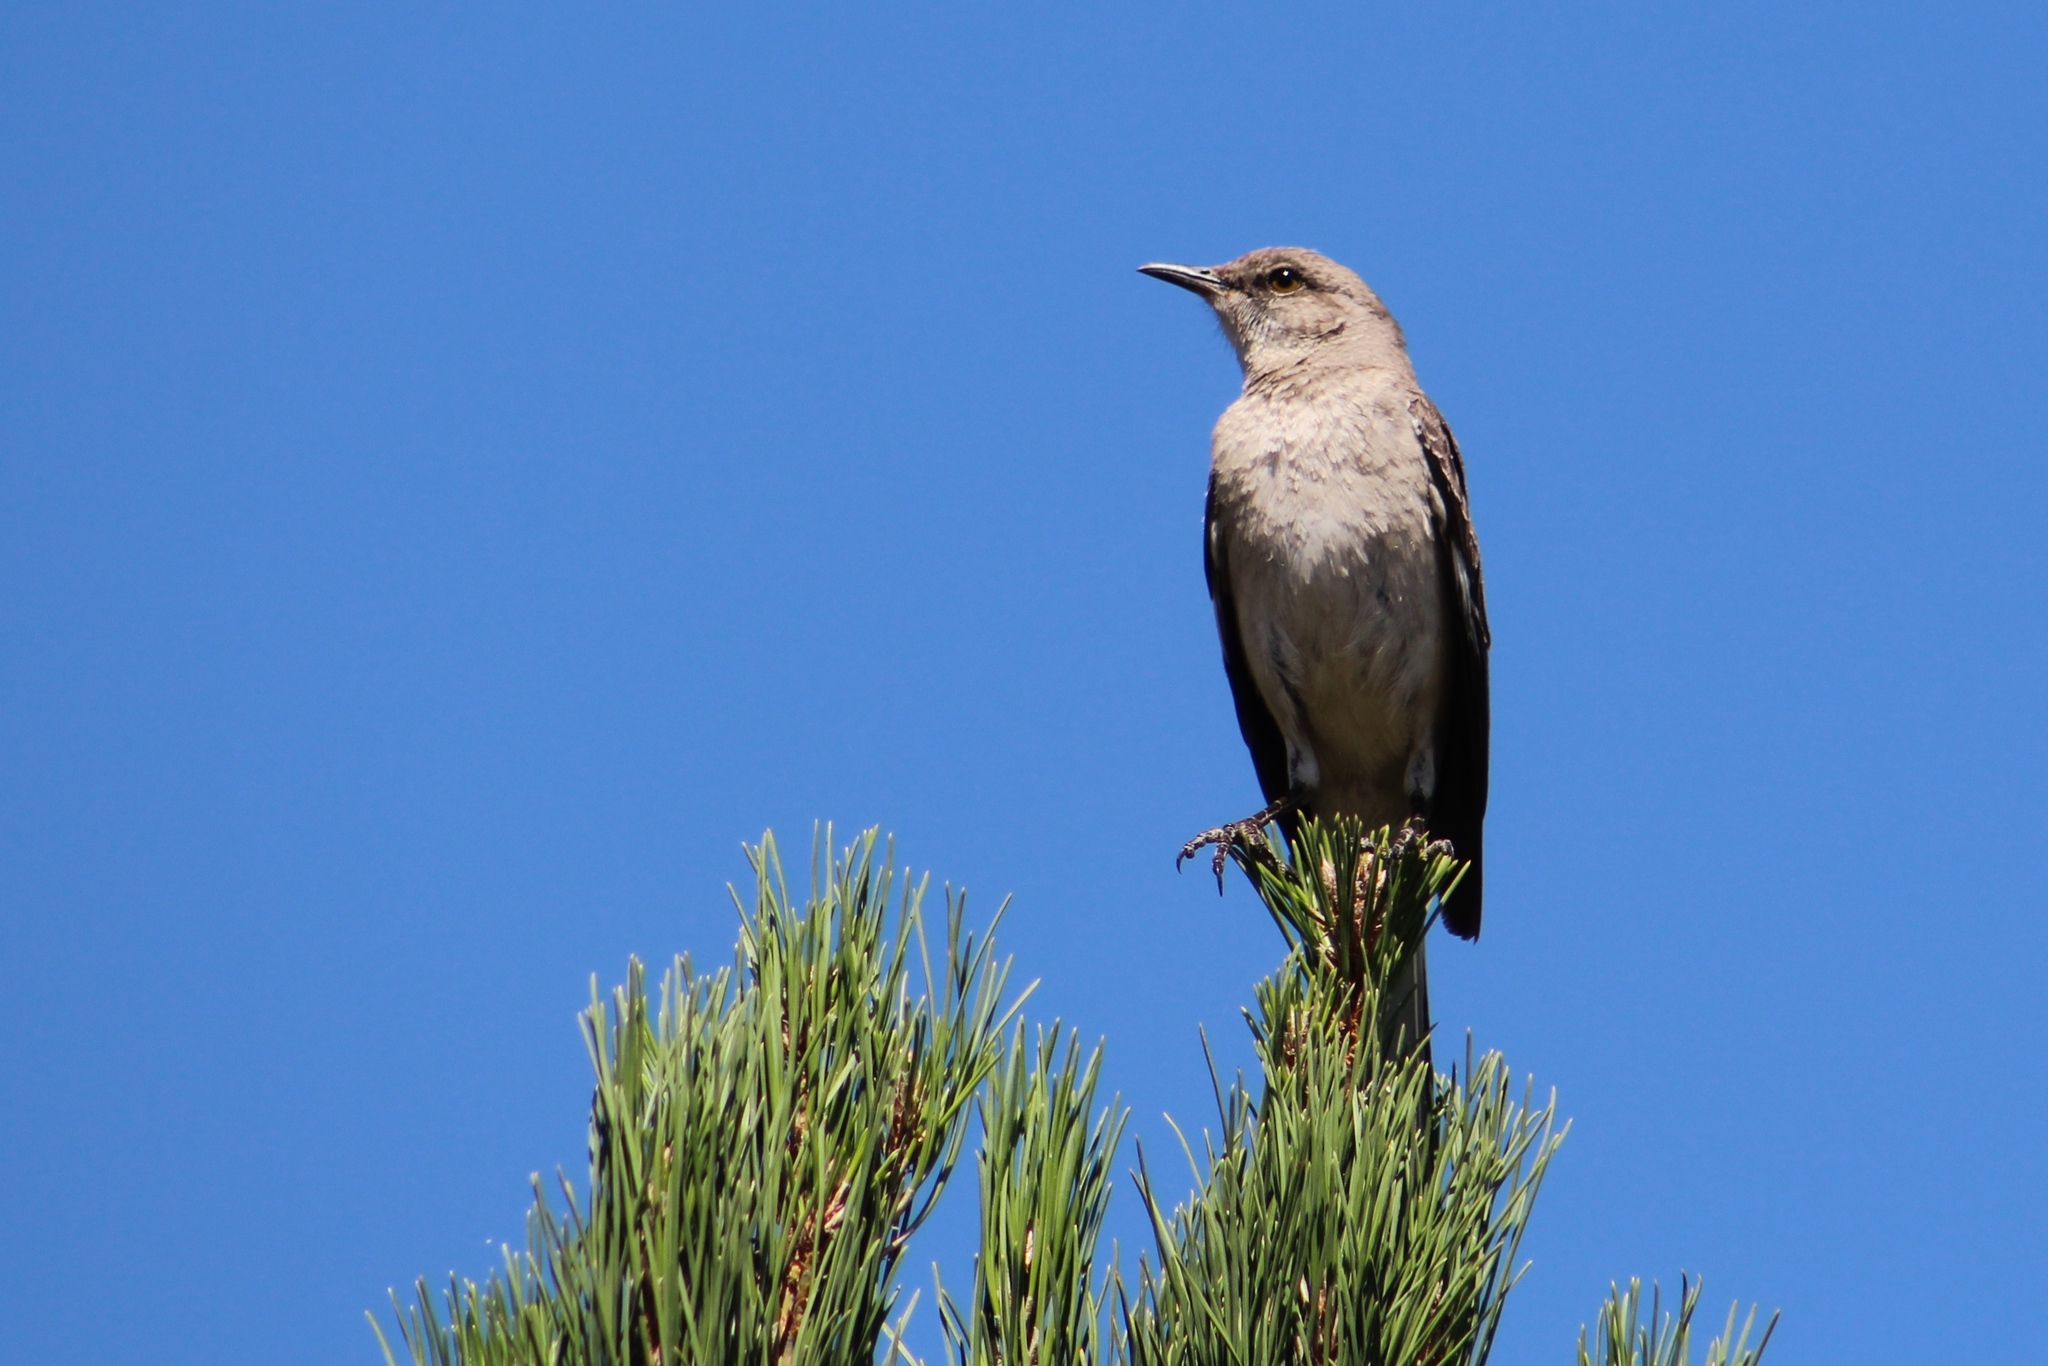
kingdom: Animalia
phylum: Chordata
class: Aves
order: Passeriformes
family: Mimidae
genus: Mimus
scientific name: Mimus polyglottos
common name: Northern mockingbird
